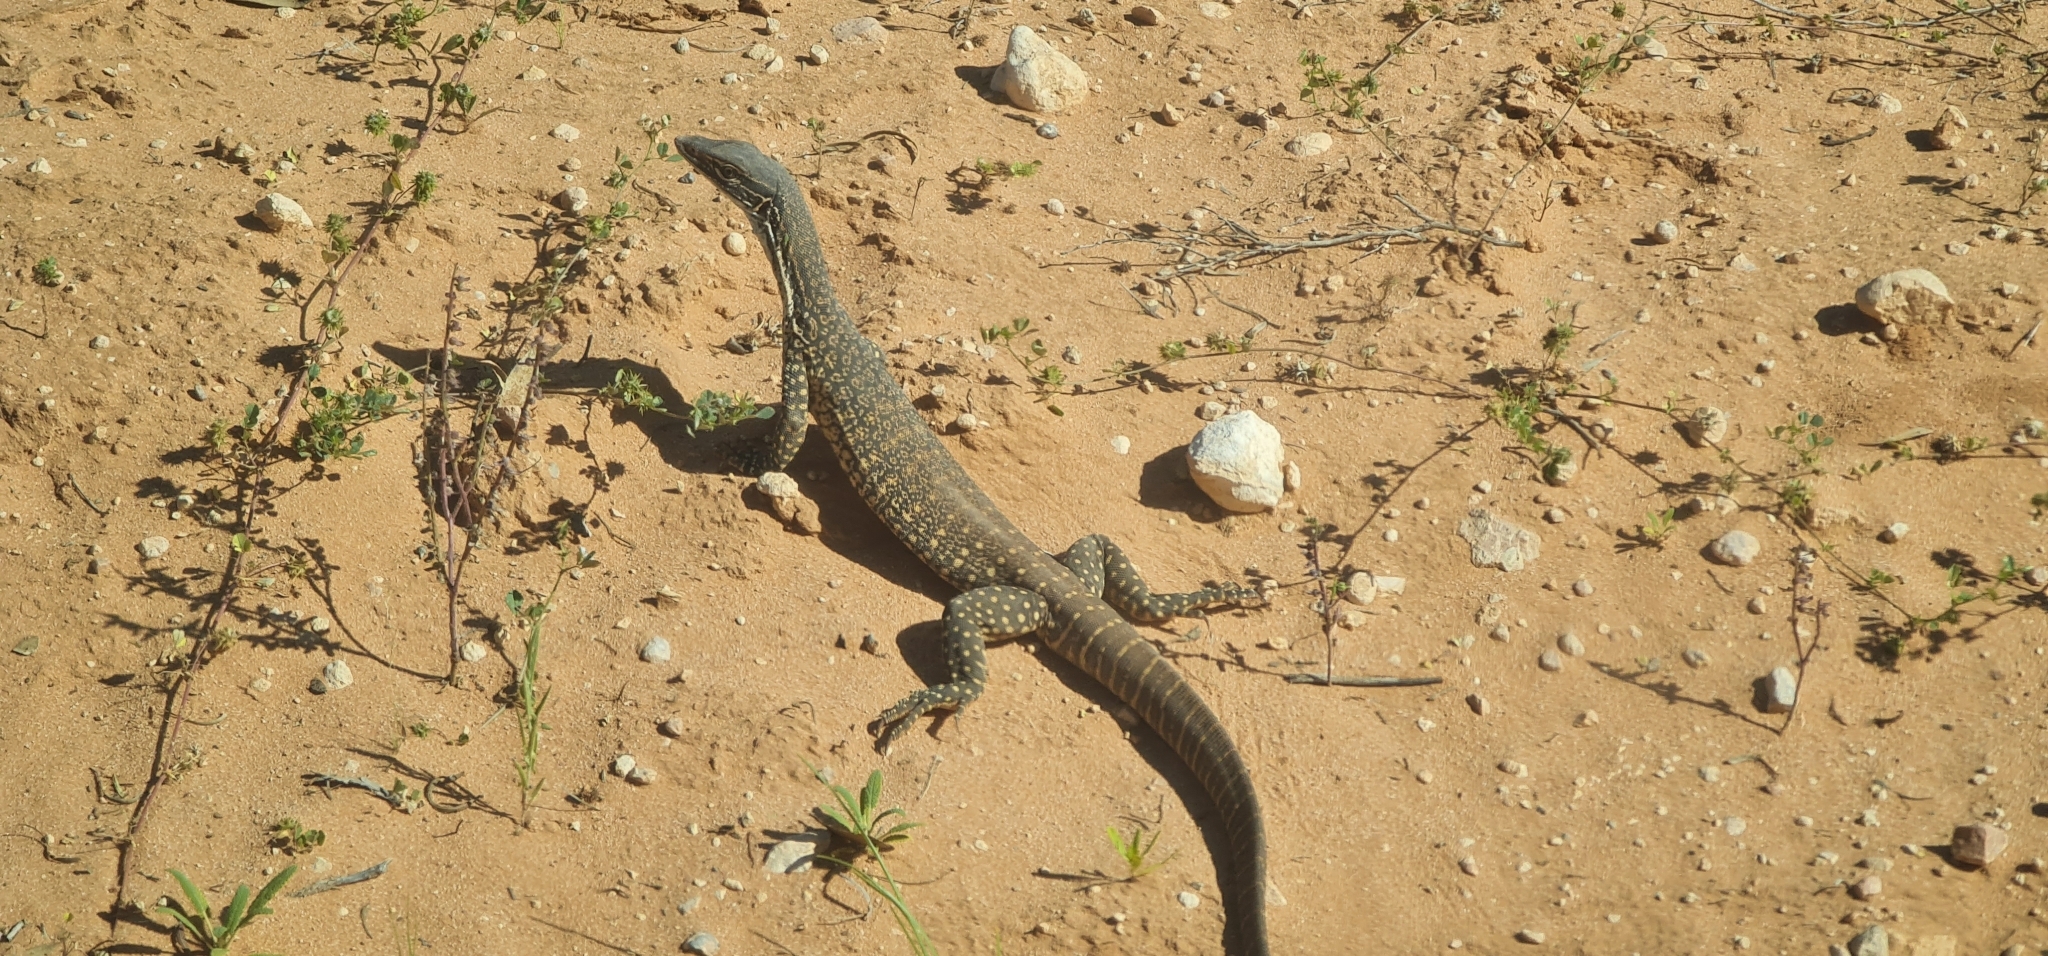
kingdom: Animalia
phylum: Chordata
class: Squamata
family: Varanidae
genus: Varanus
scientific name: Varanus gouldii
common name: Gould's goanna
